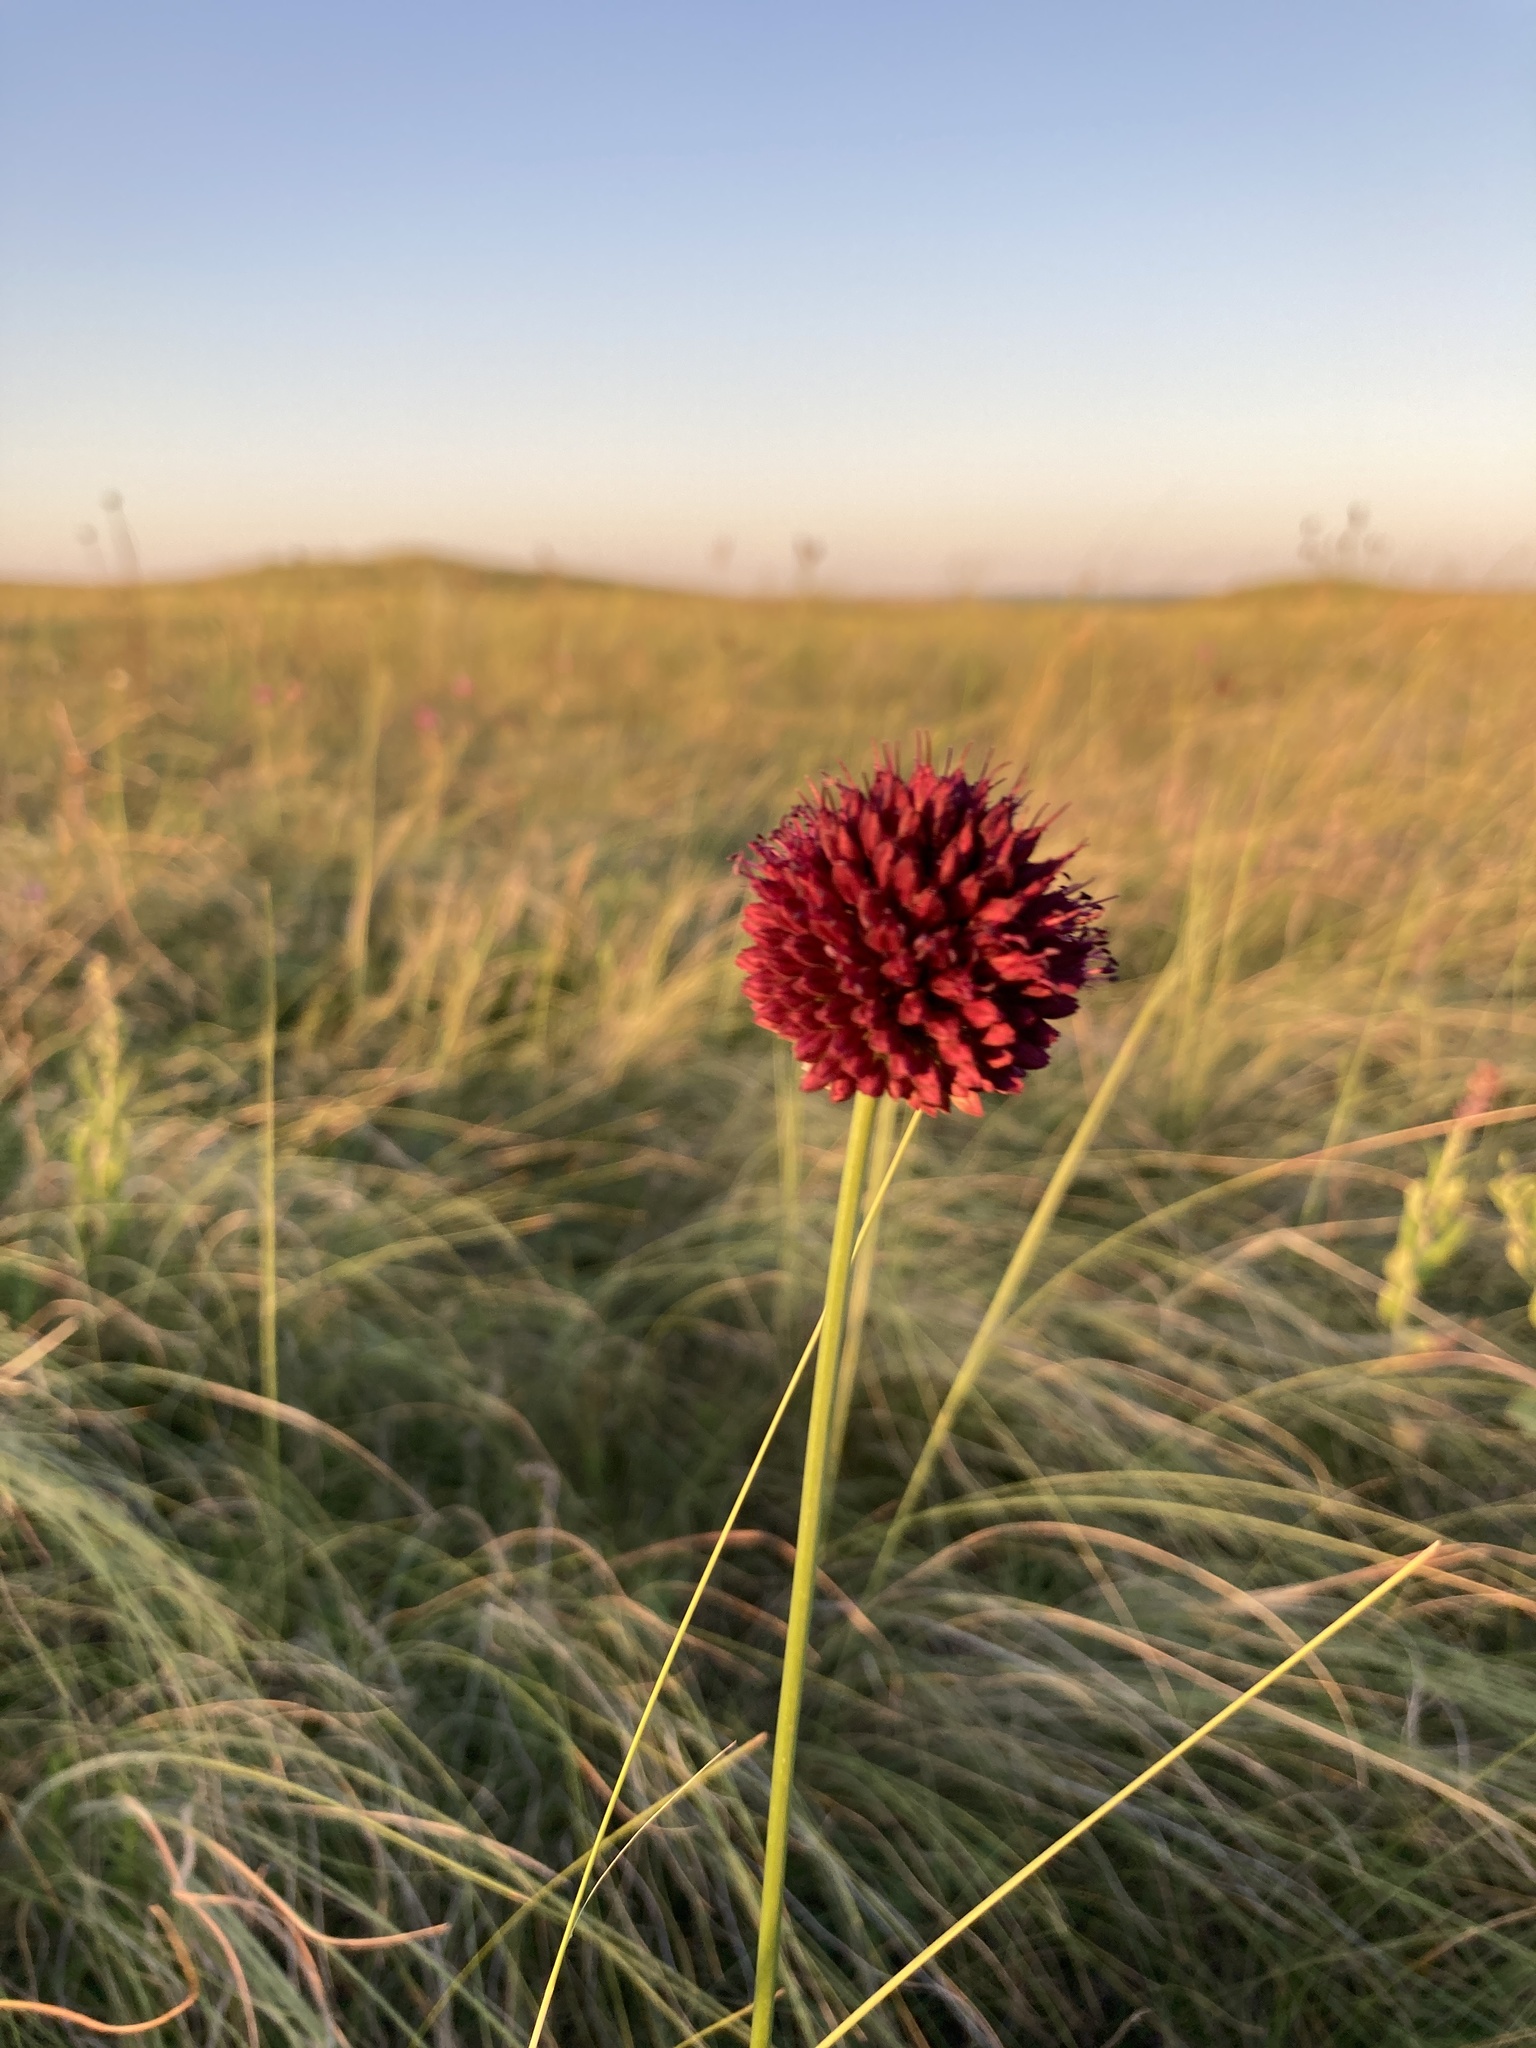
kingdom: Plantae
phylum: Tracheophyta
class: Liliopsida
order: Asparagales
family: Amaryllidaceae
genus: Allium
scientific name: Allium sphaerocephalon
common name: Round-headed leek
